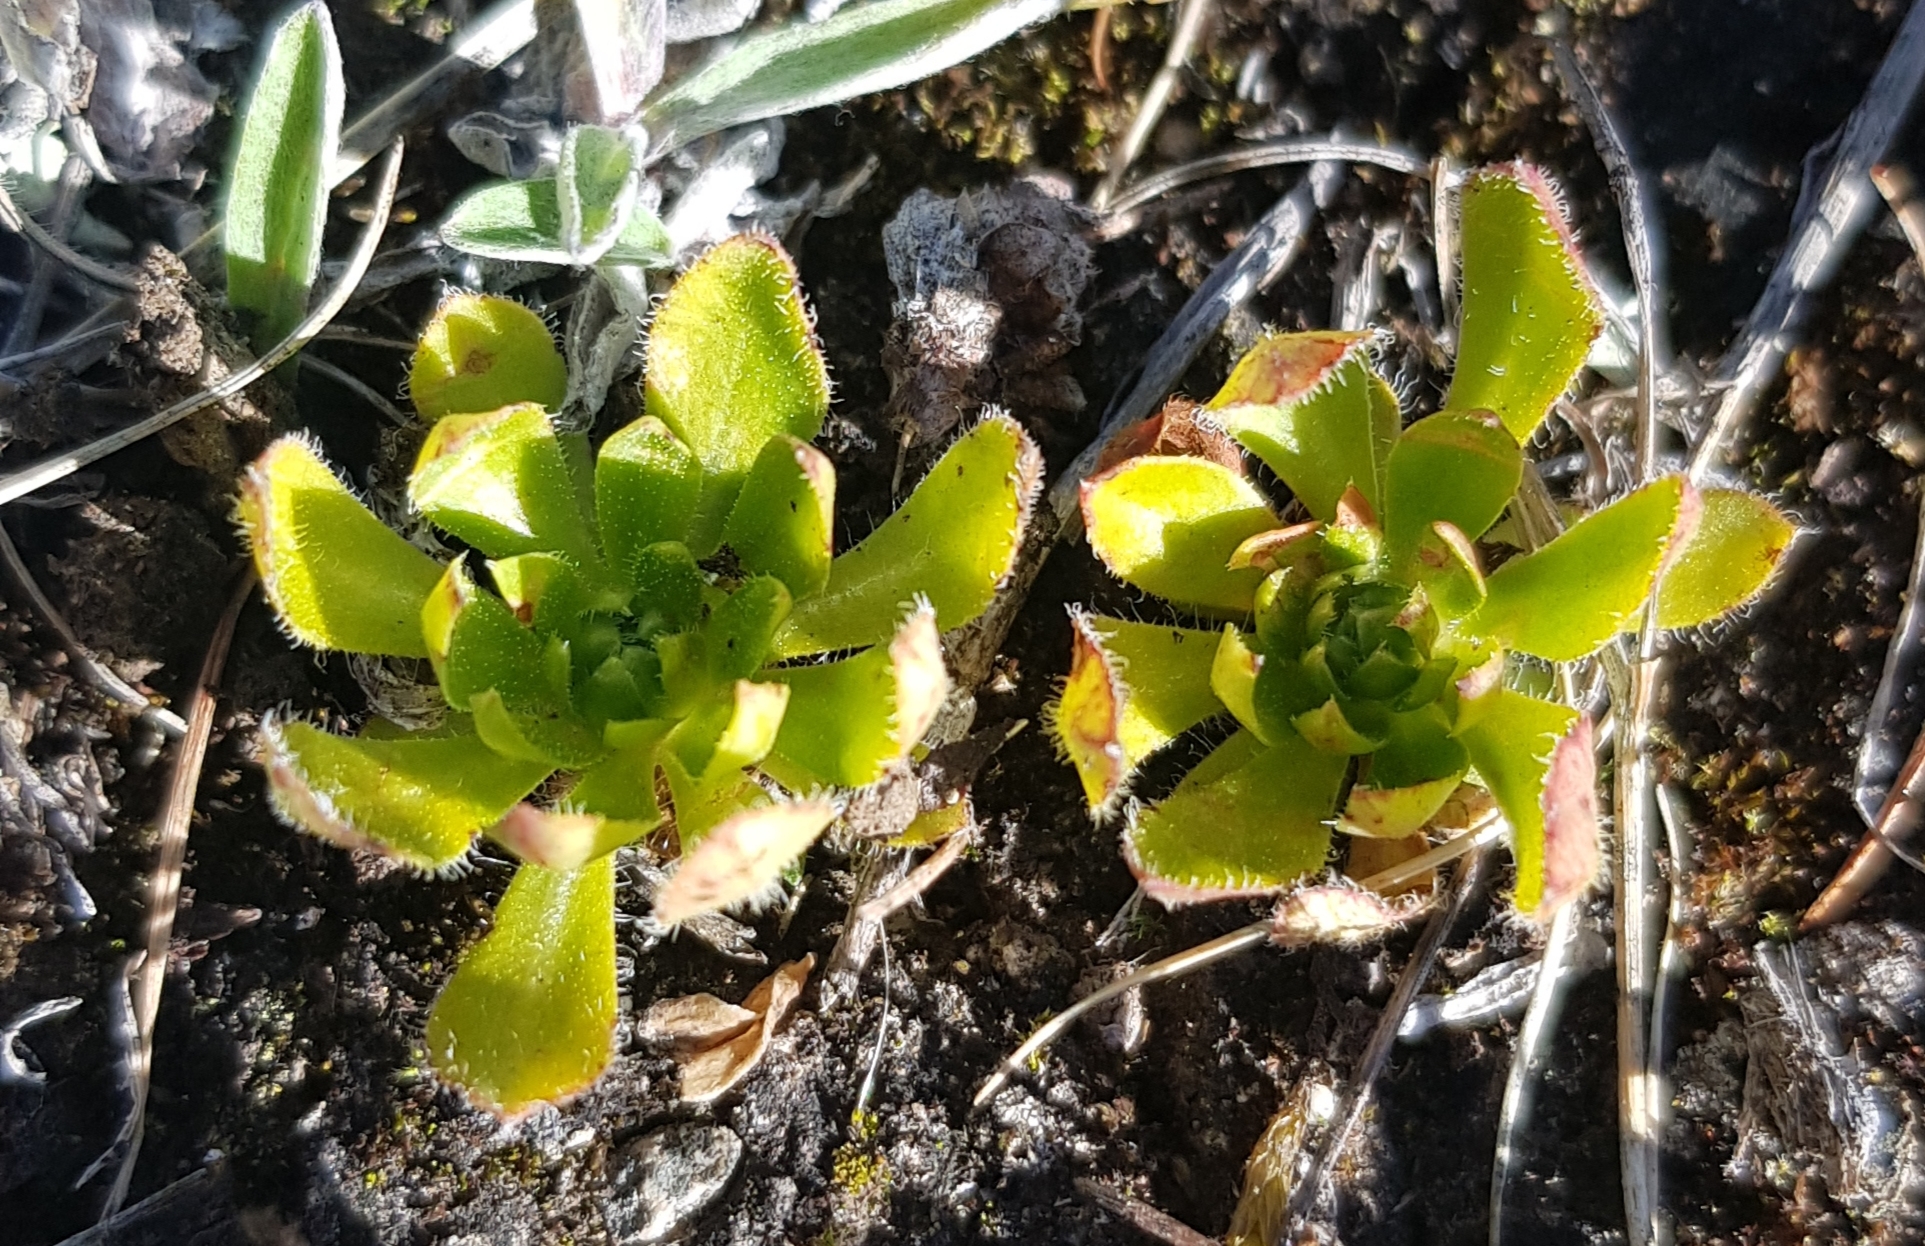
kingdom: Plantae
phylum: Tracheophyta
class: Magnoliopsida
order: Ericales
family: Primulaceae
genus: Androsace
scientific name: Androsace chamaejasme
